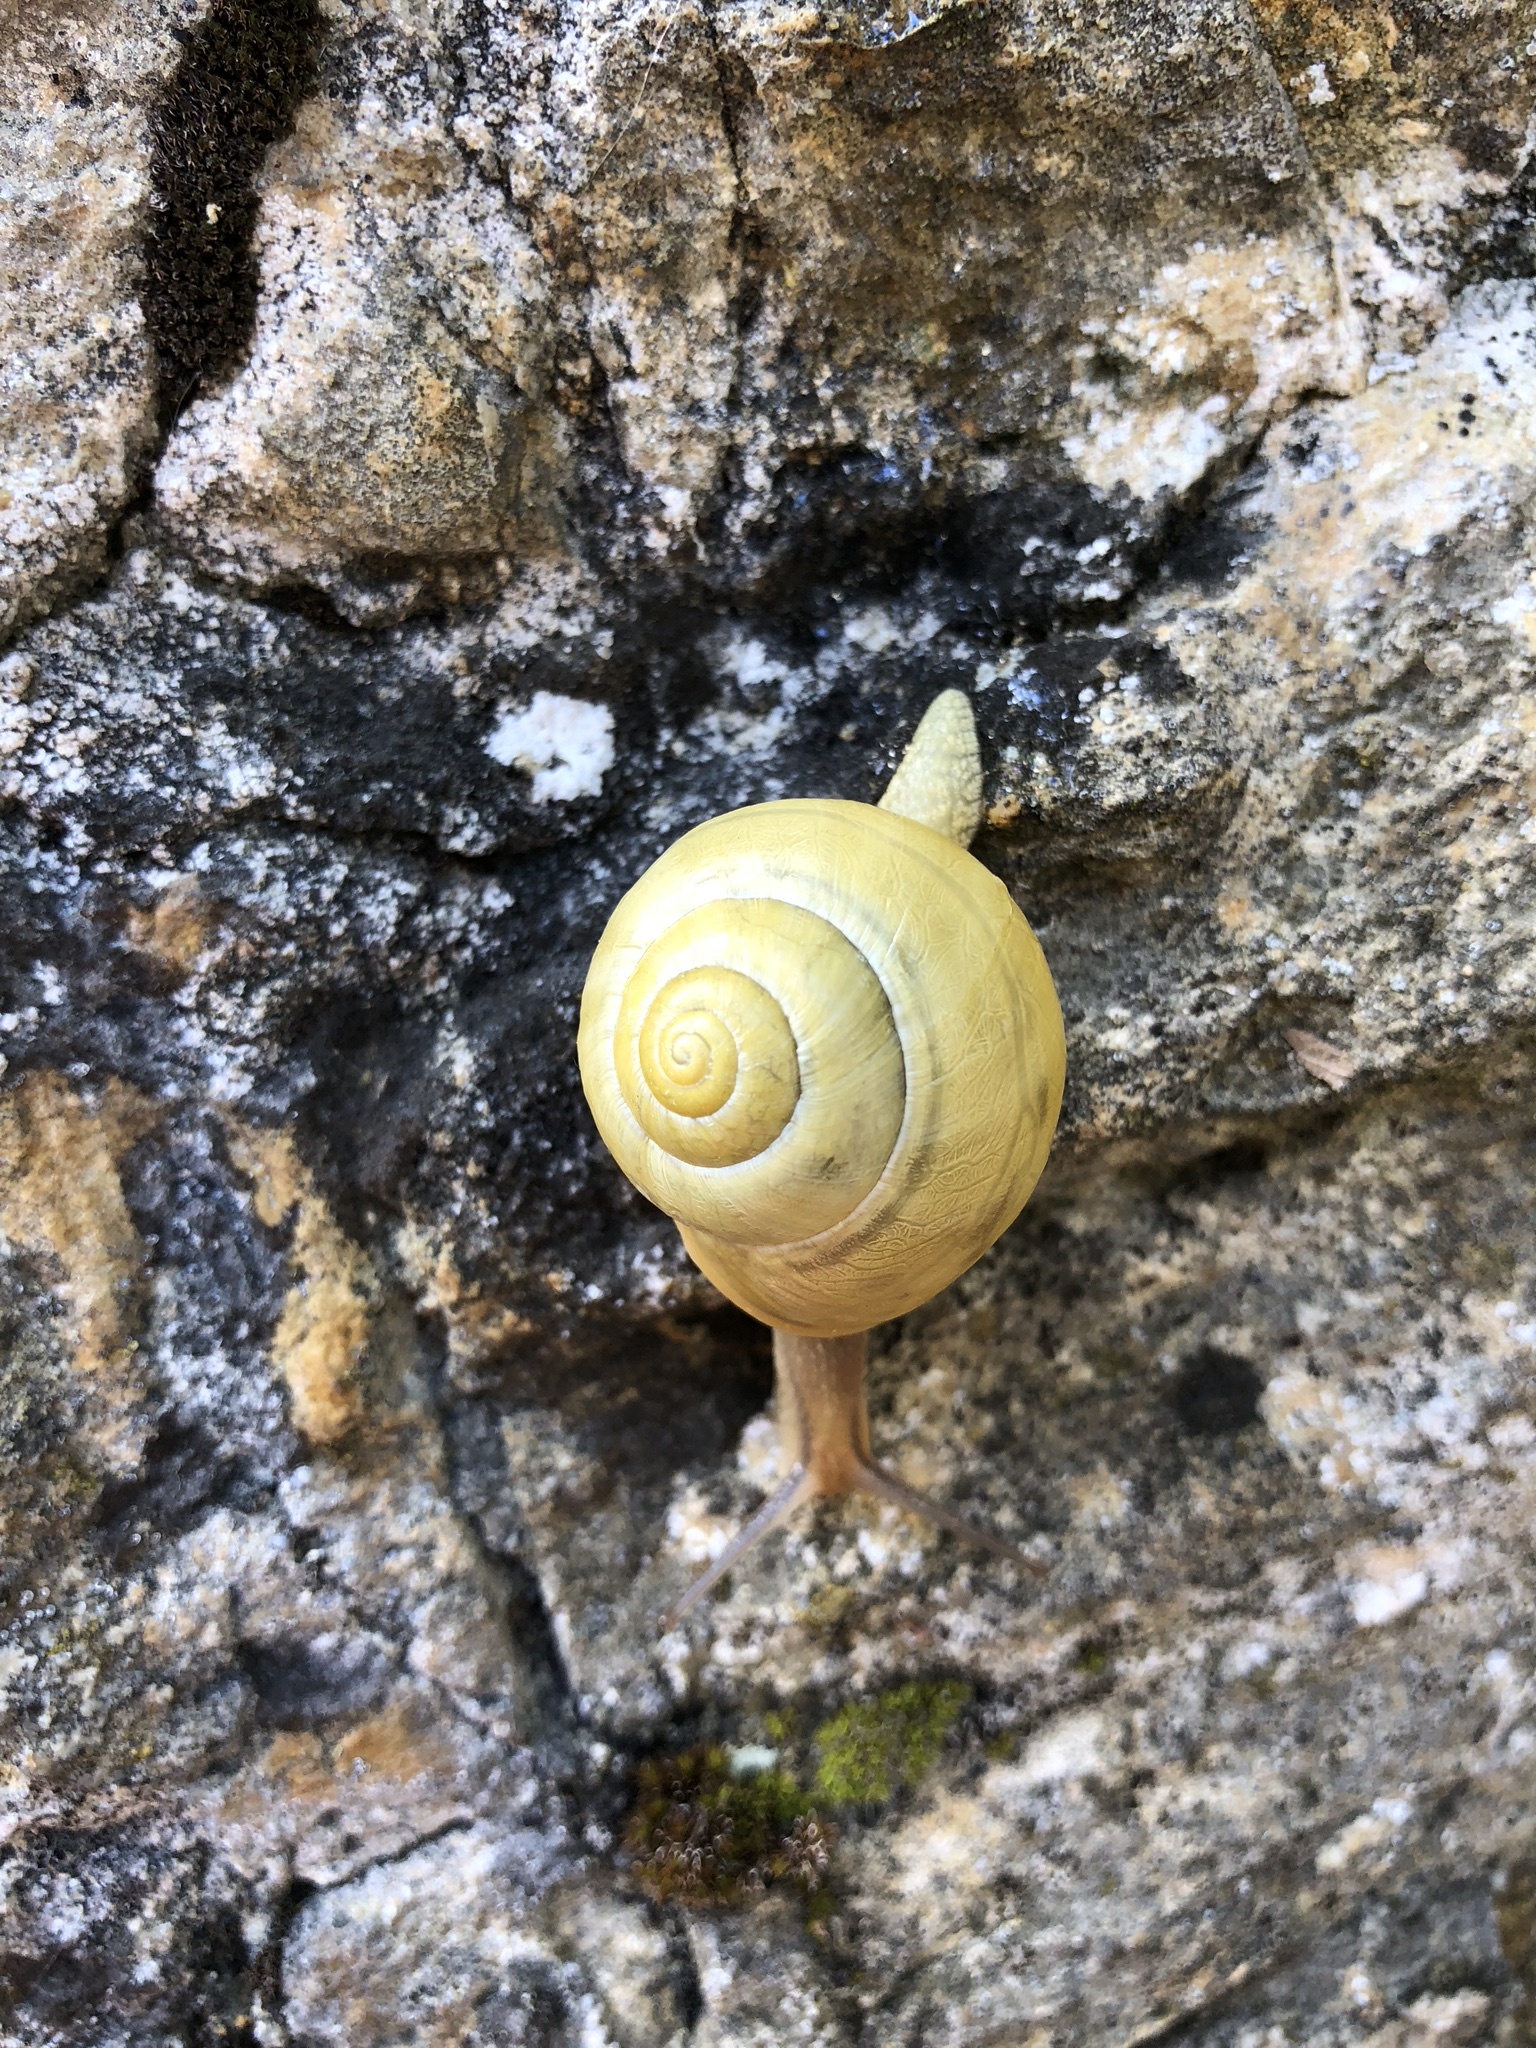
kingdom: Animalia
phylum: Mollusca
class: Gastropoda
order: Stylommatophora
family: Helicidae
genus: Cepaea
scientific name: Cepaea hortensis
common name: White-lip gardensnail
